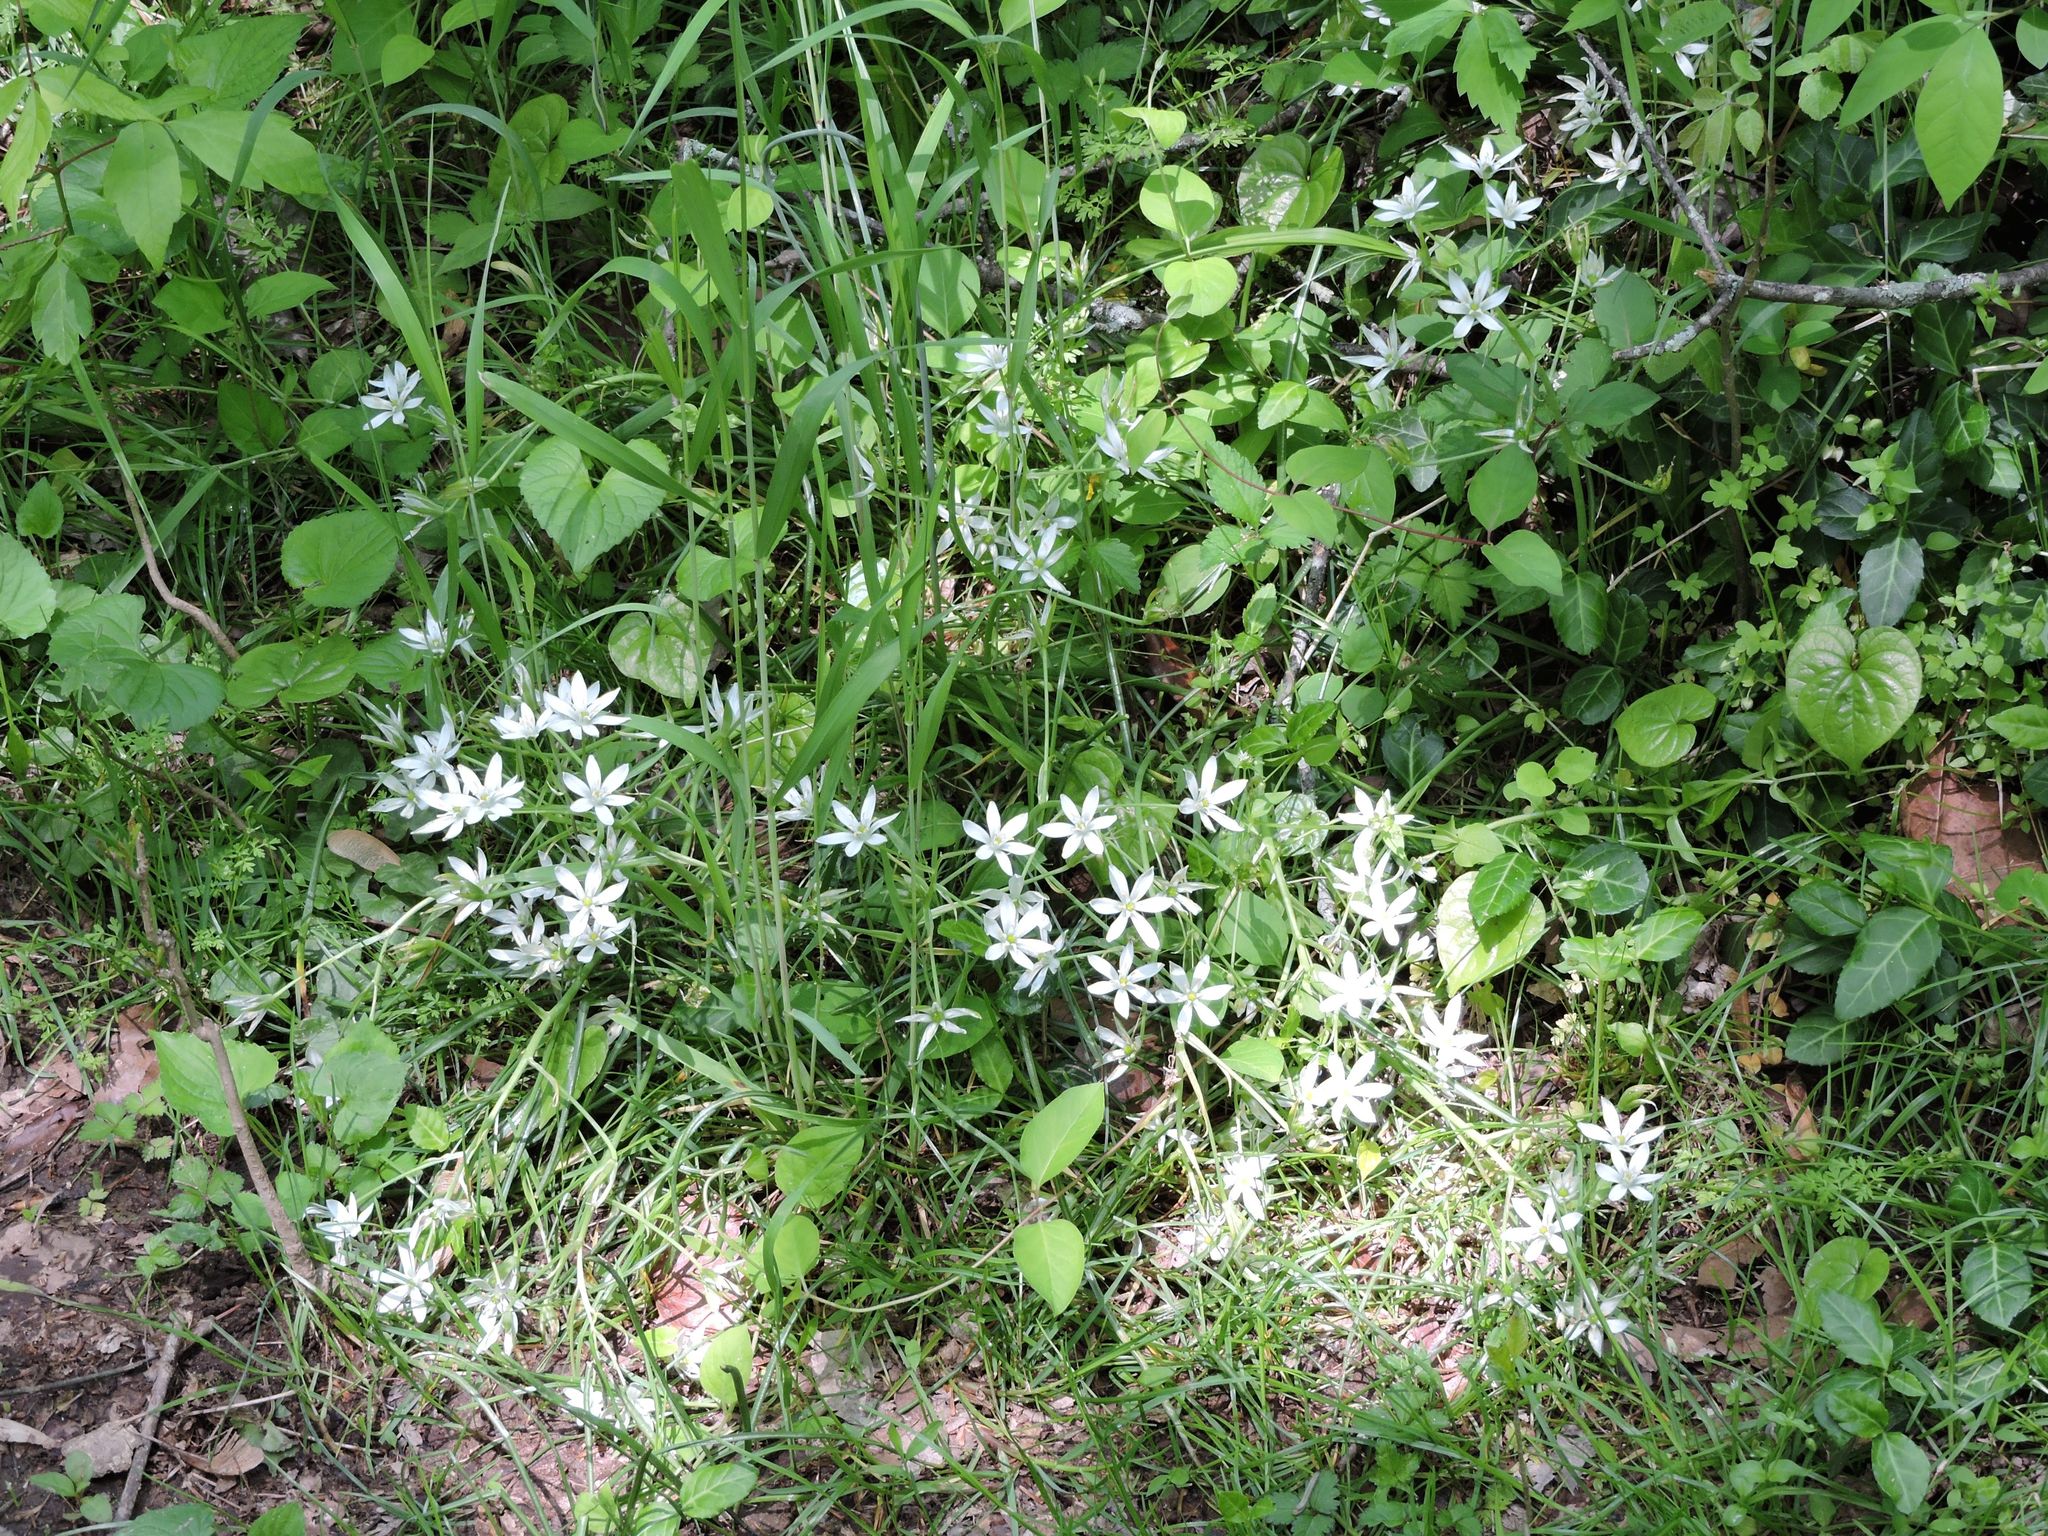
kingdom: Plantae
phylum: Tracheophyta
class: Liliopsida
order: Asparagales
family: Asparagaceae
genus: Ornithogalum
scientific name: Ornithogalum umbellatum
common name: Garden star-of-bethlehem
